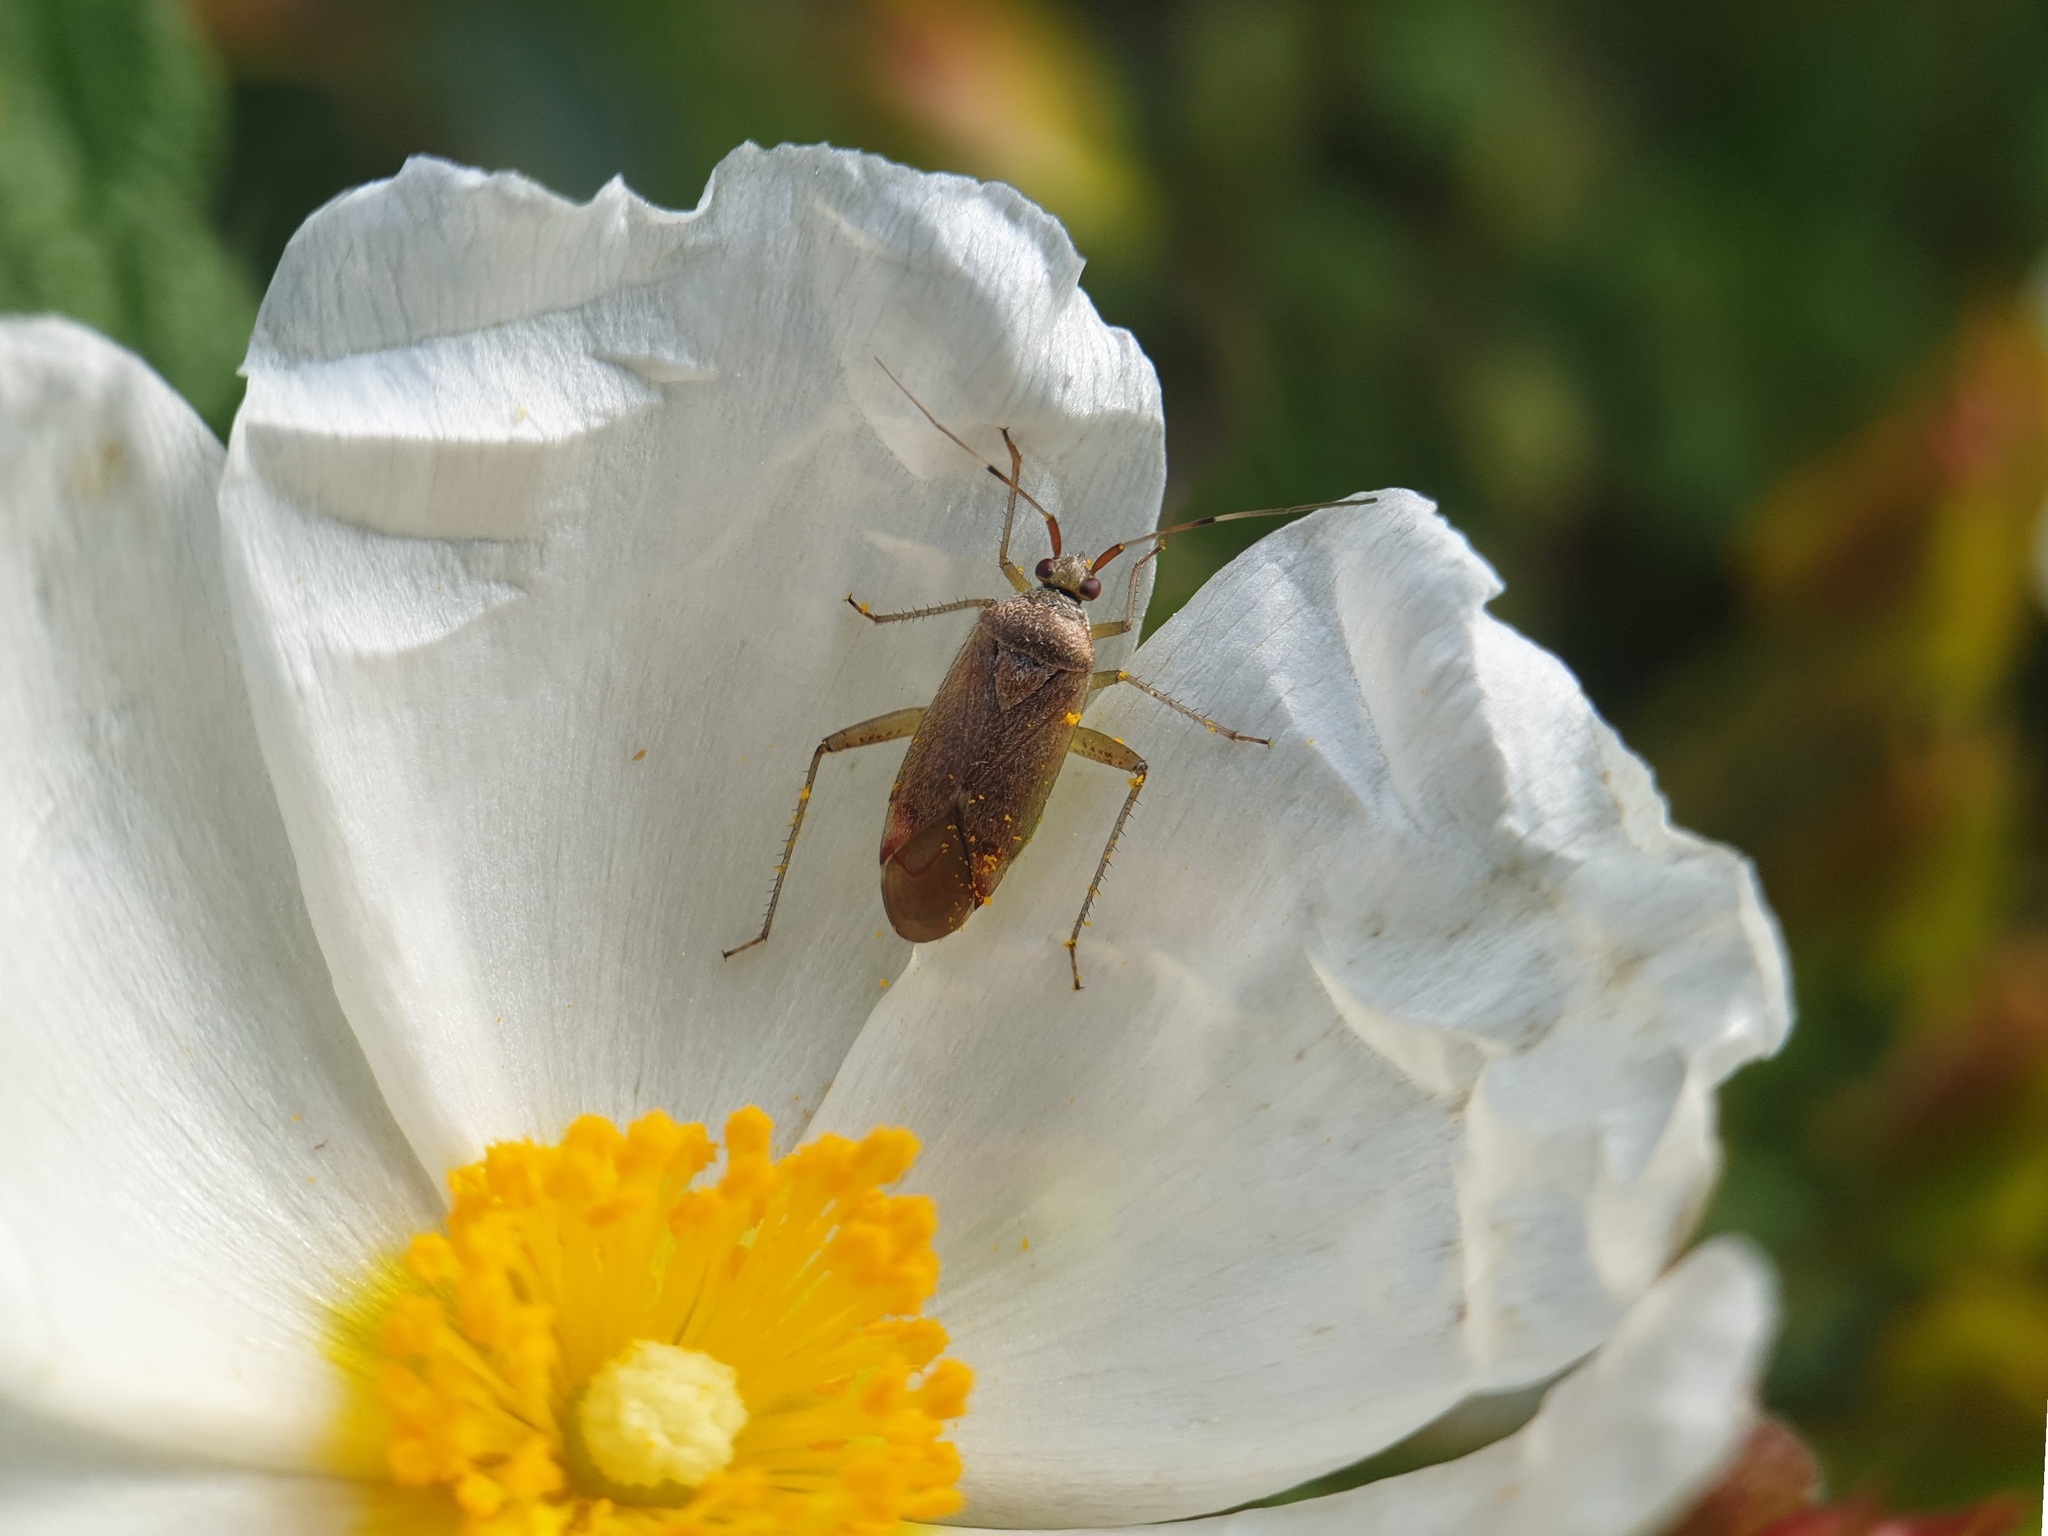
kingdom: Animalia
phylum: Arthropoda
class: Insecta
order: Hemiptera
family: Miridae
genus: Closterotomus
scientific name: Closterotomus annulus
